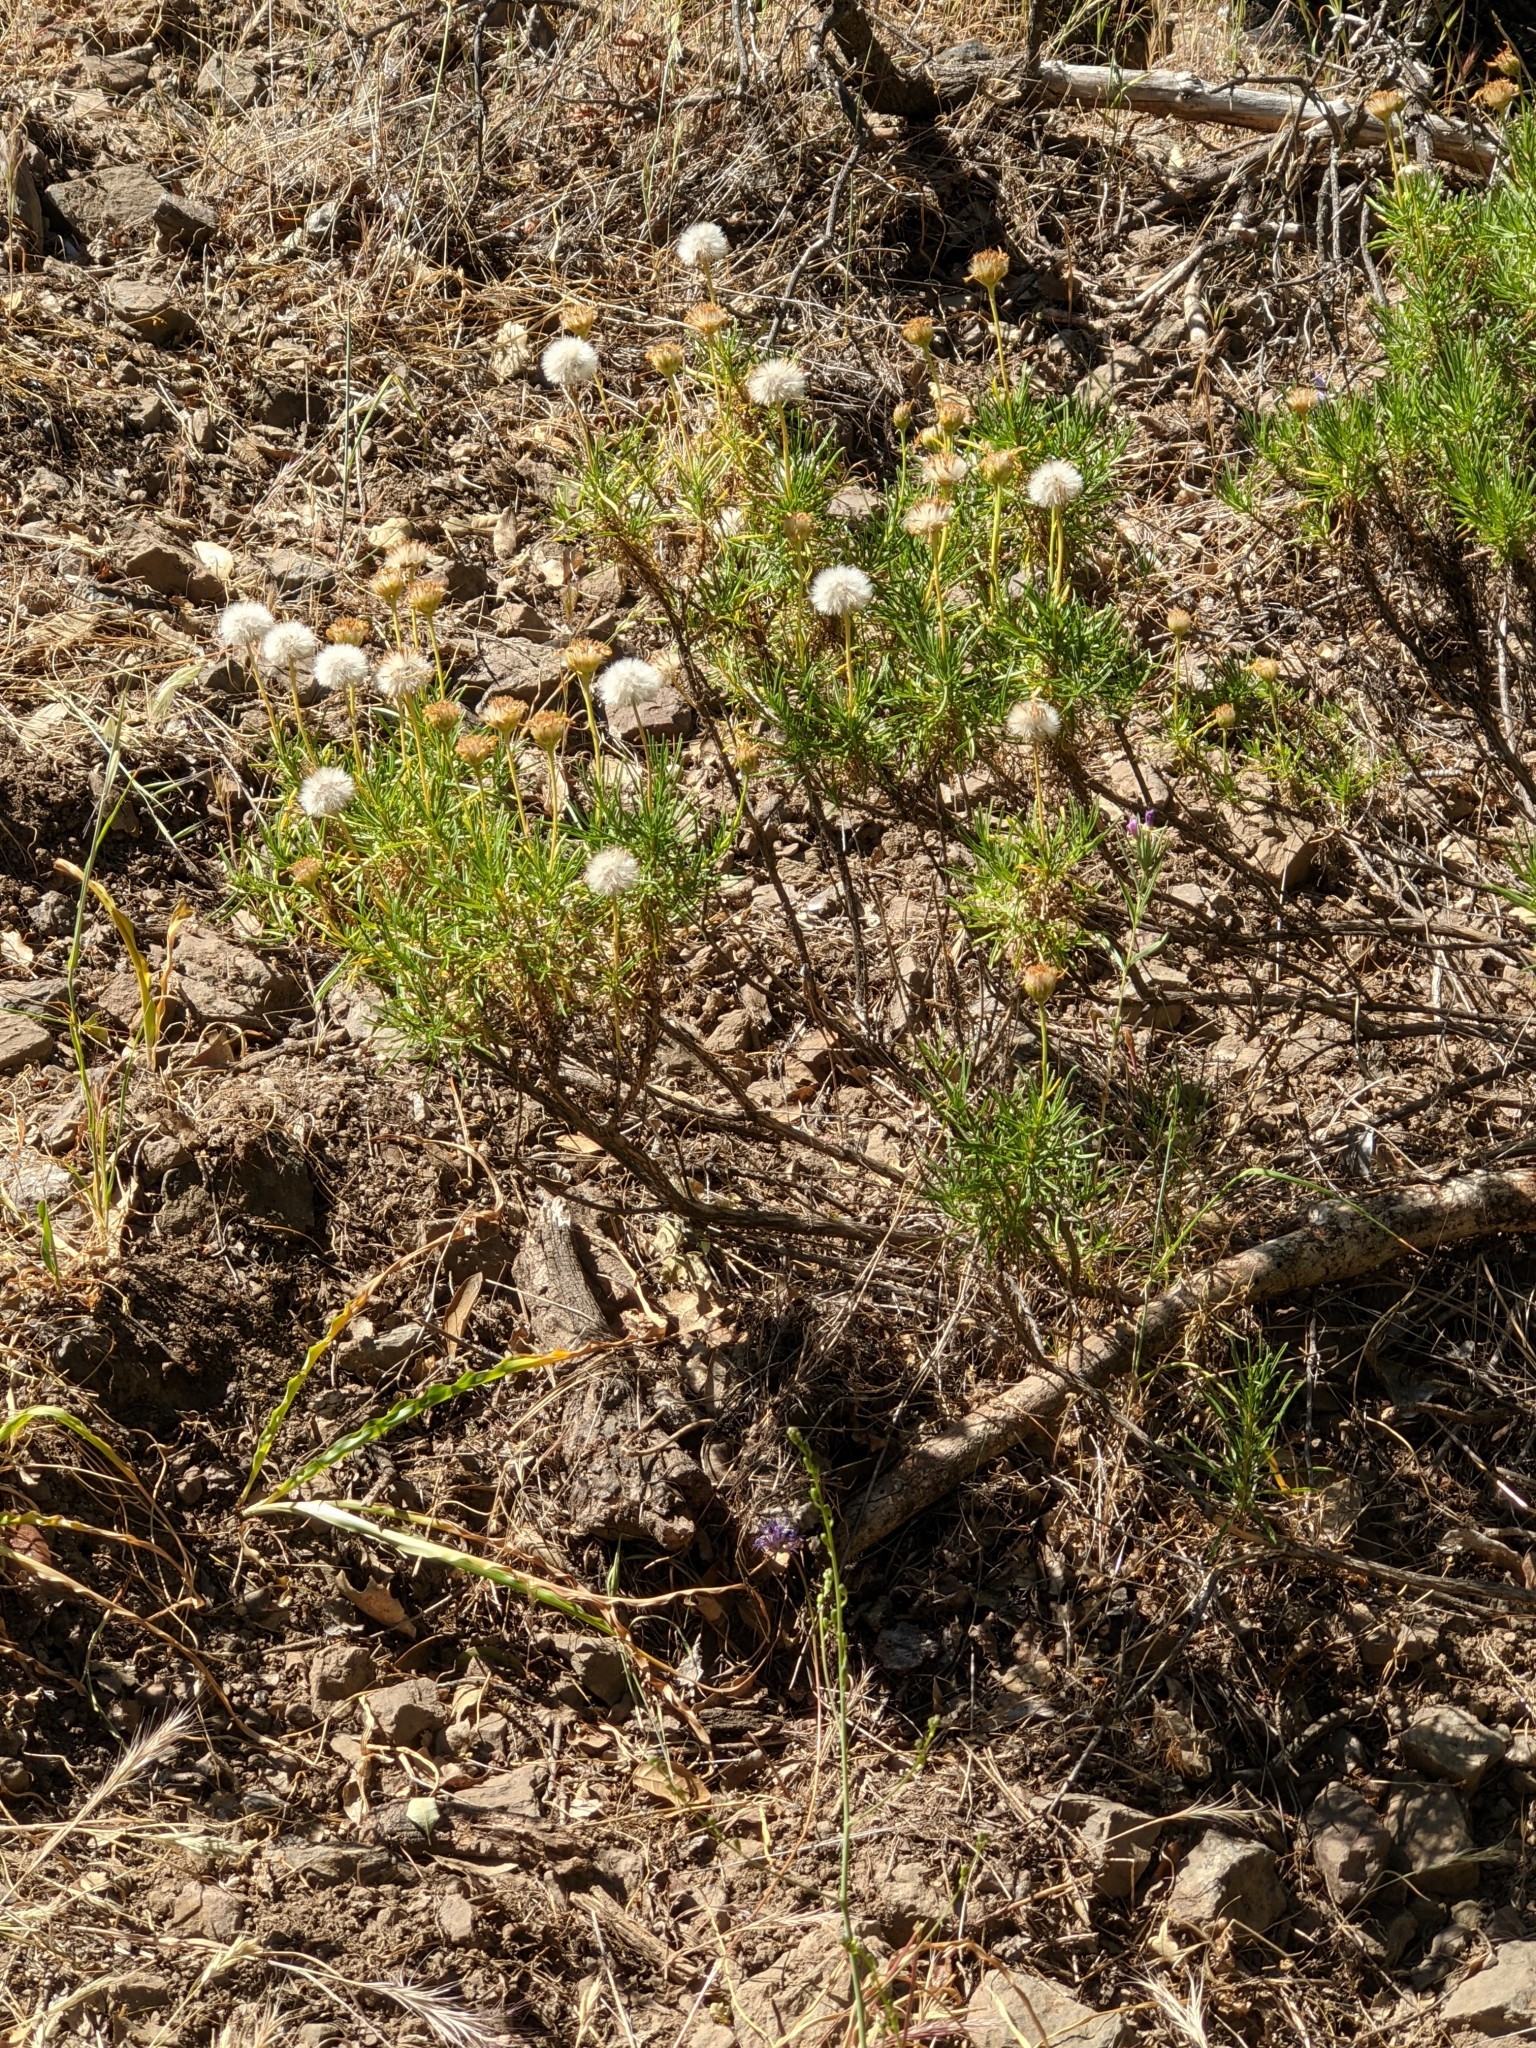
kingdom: Plantae
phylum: Tracheophyta
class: Magnoliopsida
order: Asterales
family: Asteraceae
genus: Ericameria
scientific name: Ericameria linearifolia
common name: Interior goldenbush
